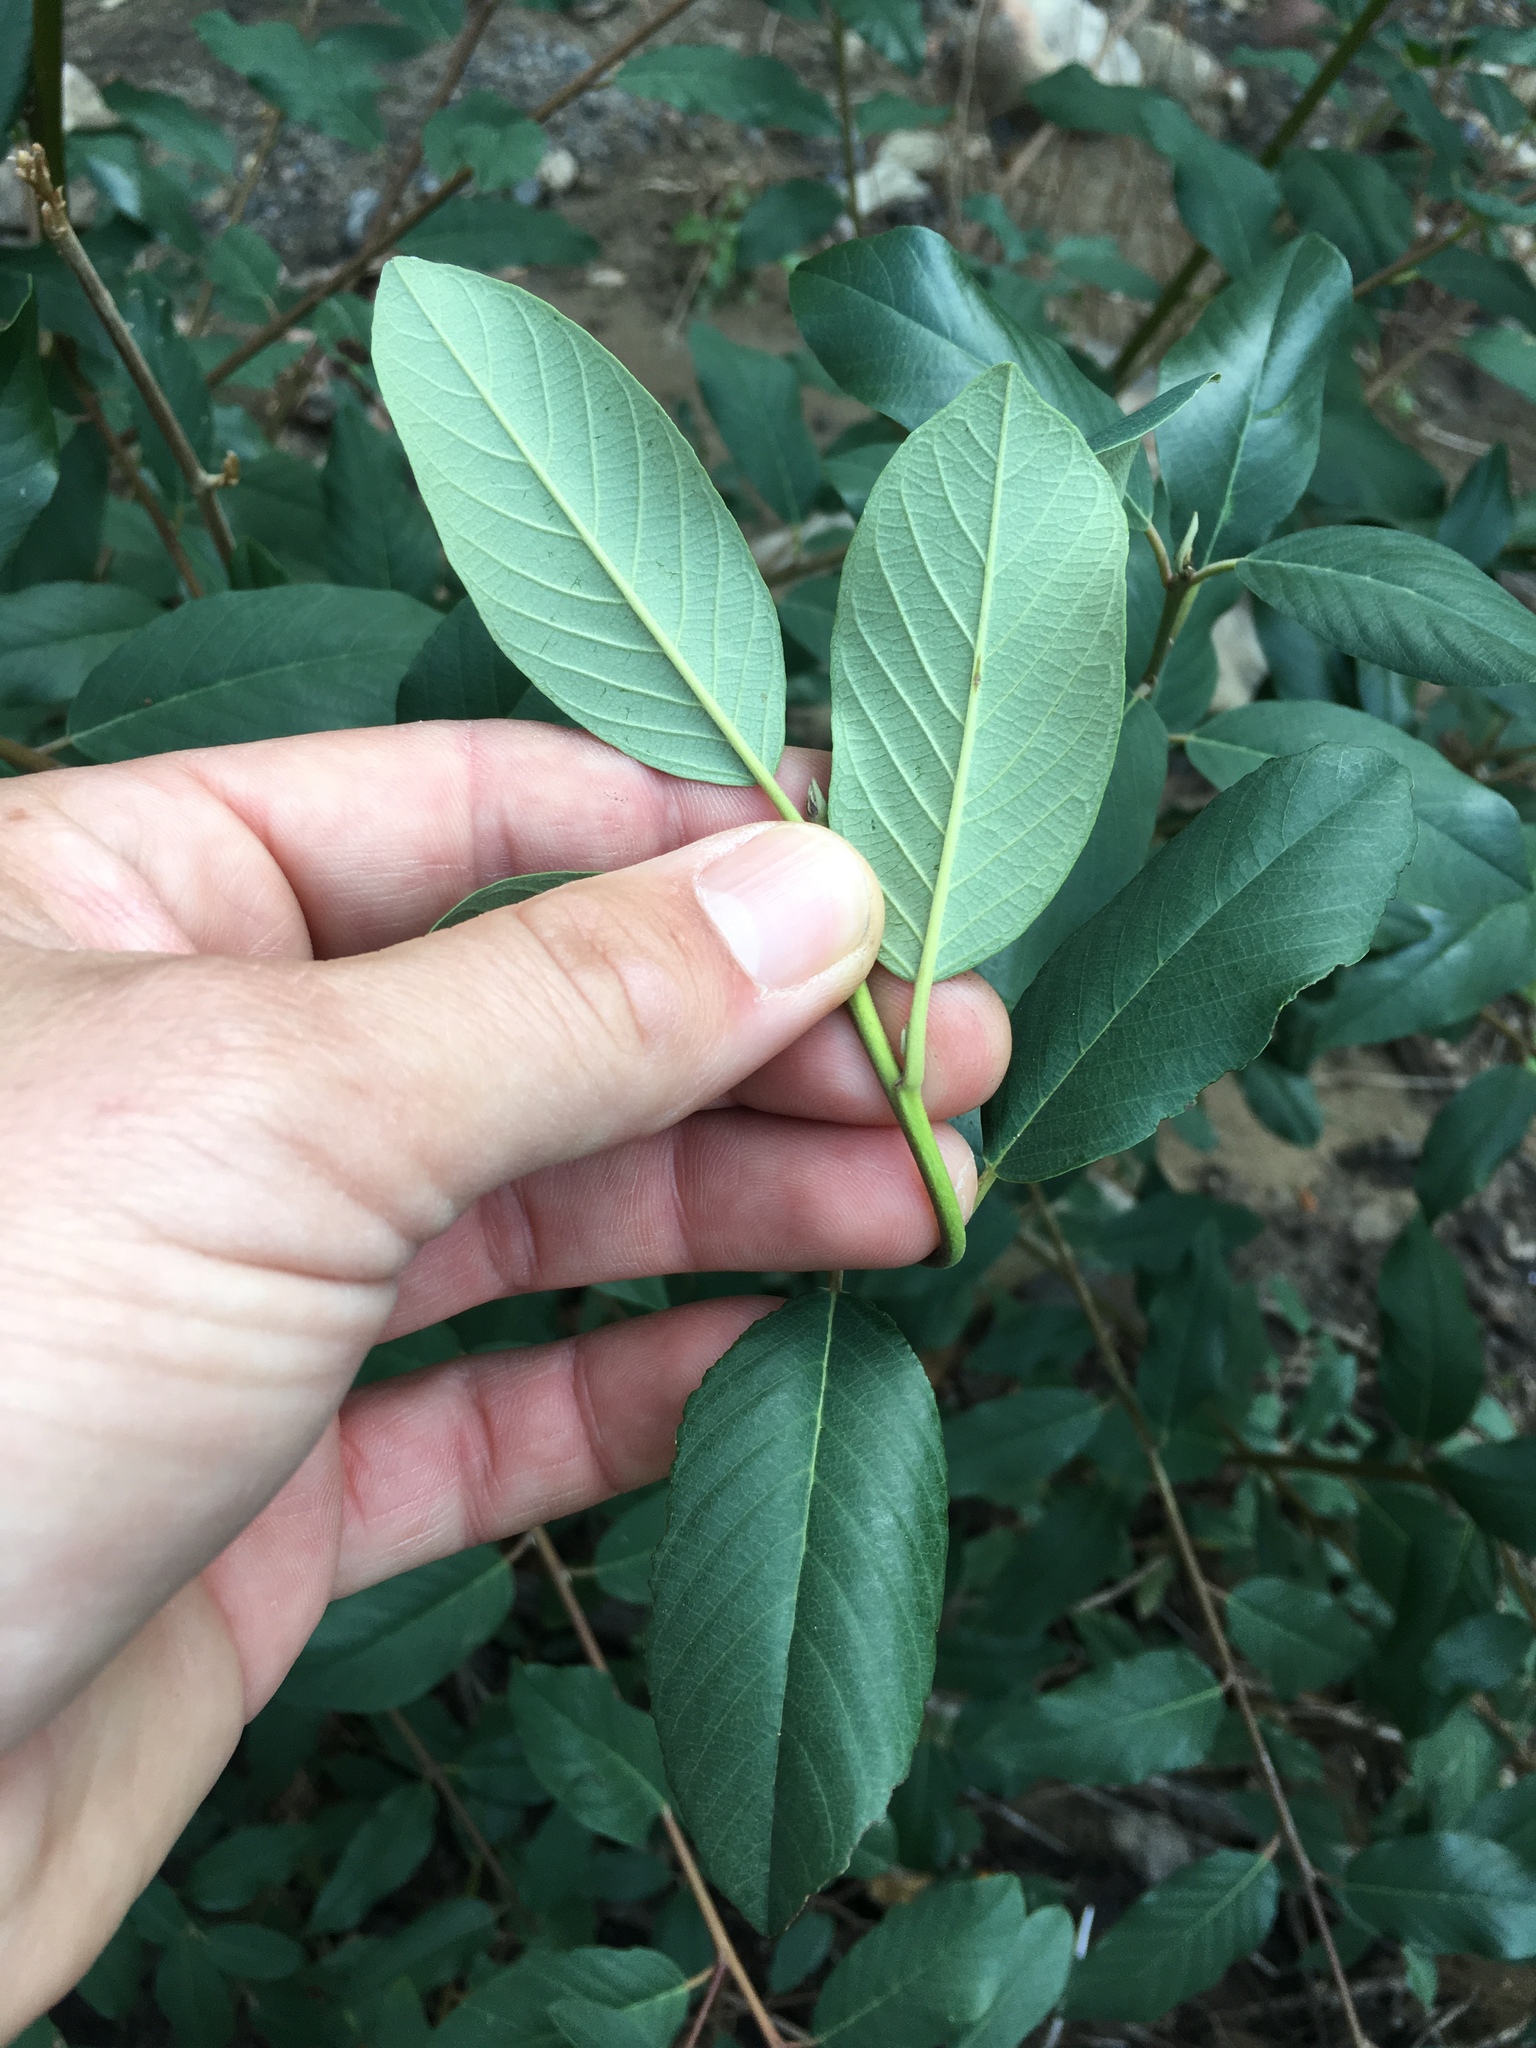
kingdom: Plantae
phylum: Tracheophyta
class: Magnoliopsida
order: Rosales
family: Rhamnaceae
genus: Frangula
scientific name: Frangula californica
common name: California buckthorn
